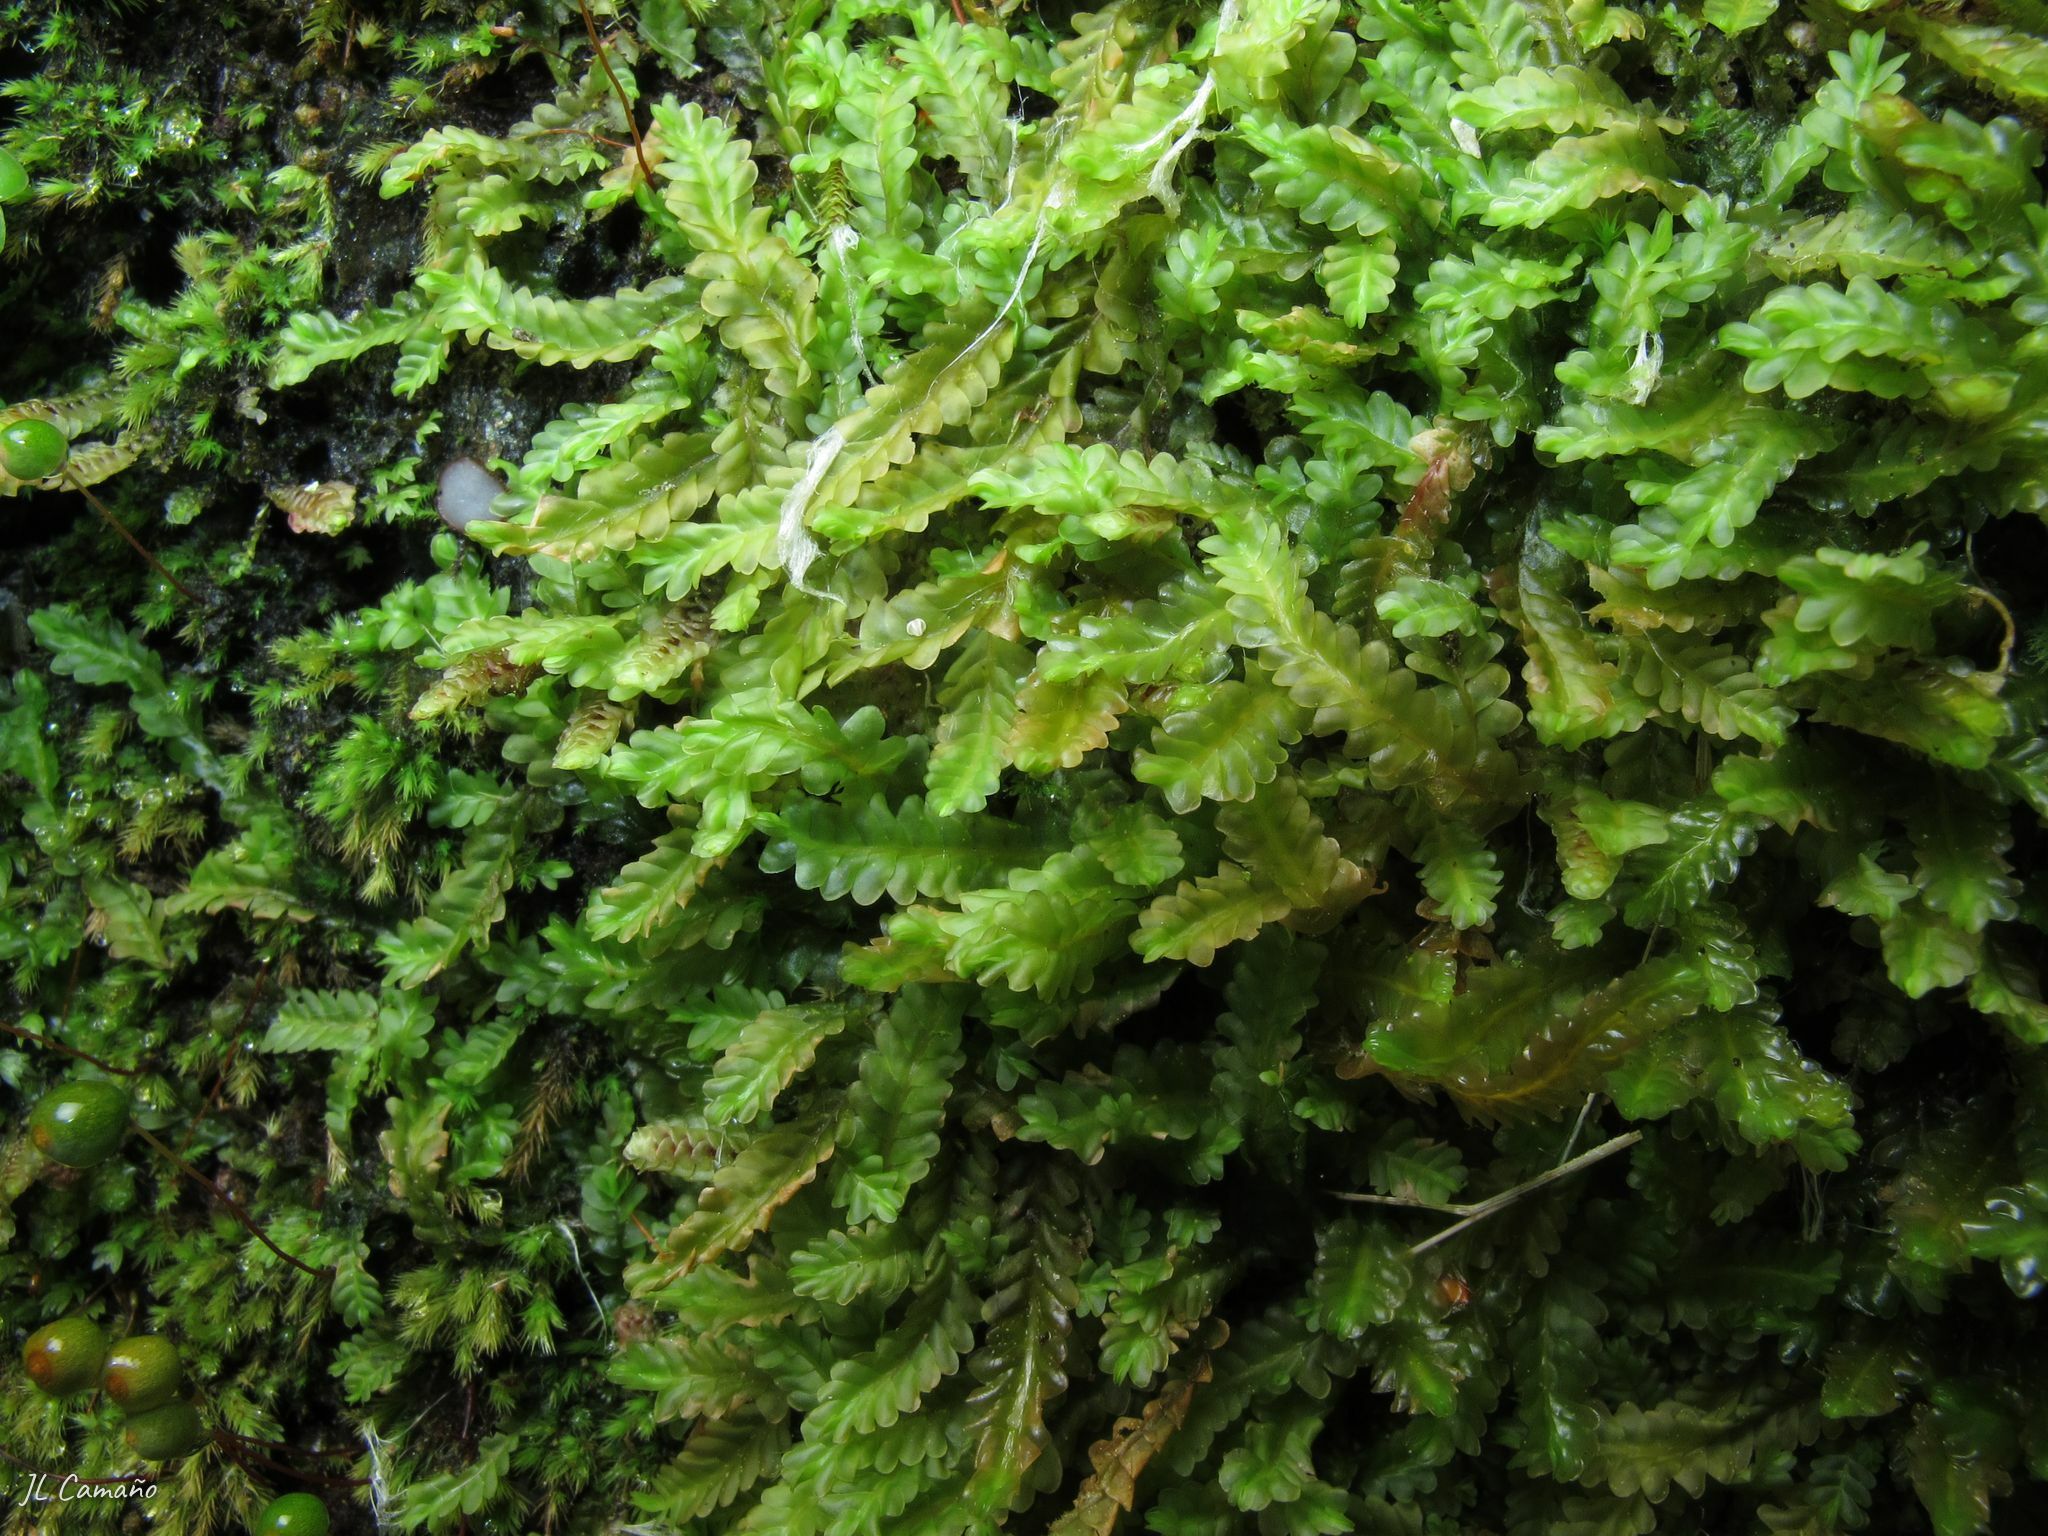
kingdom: Plantae
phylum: Marchantiophyta
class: Jungermanniopsida
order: Jungermanniales
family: Saccogynaceae
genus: Saccogyna
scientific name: Saccogyna viticulosa
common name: Straggling pouchwort
